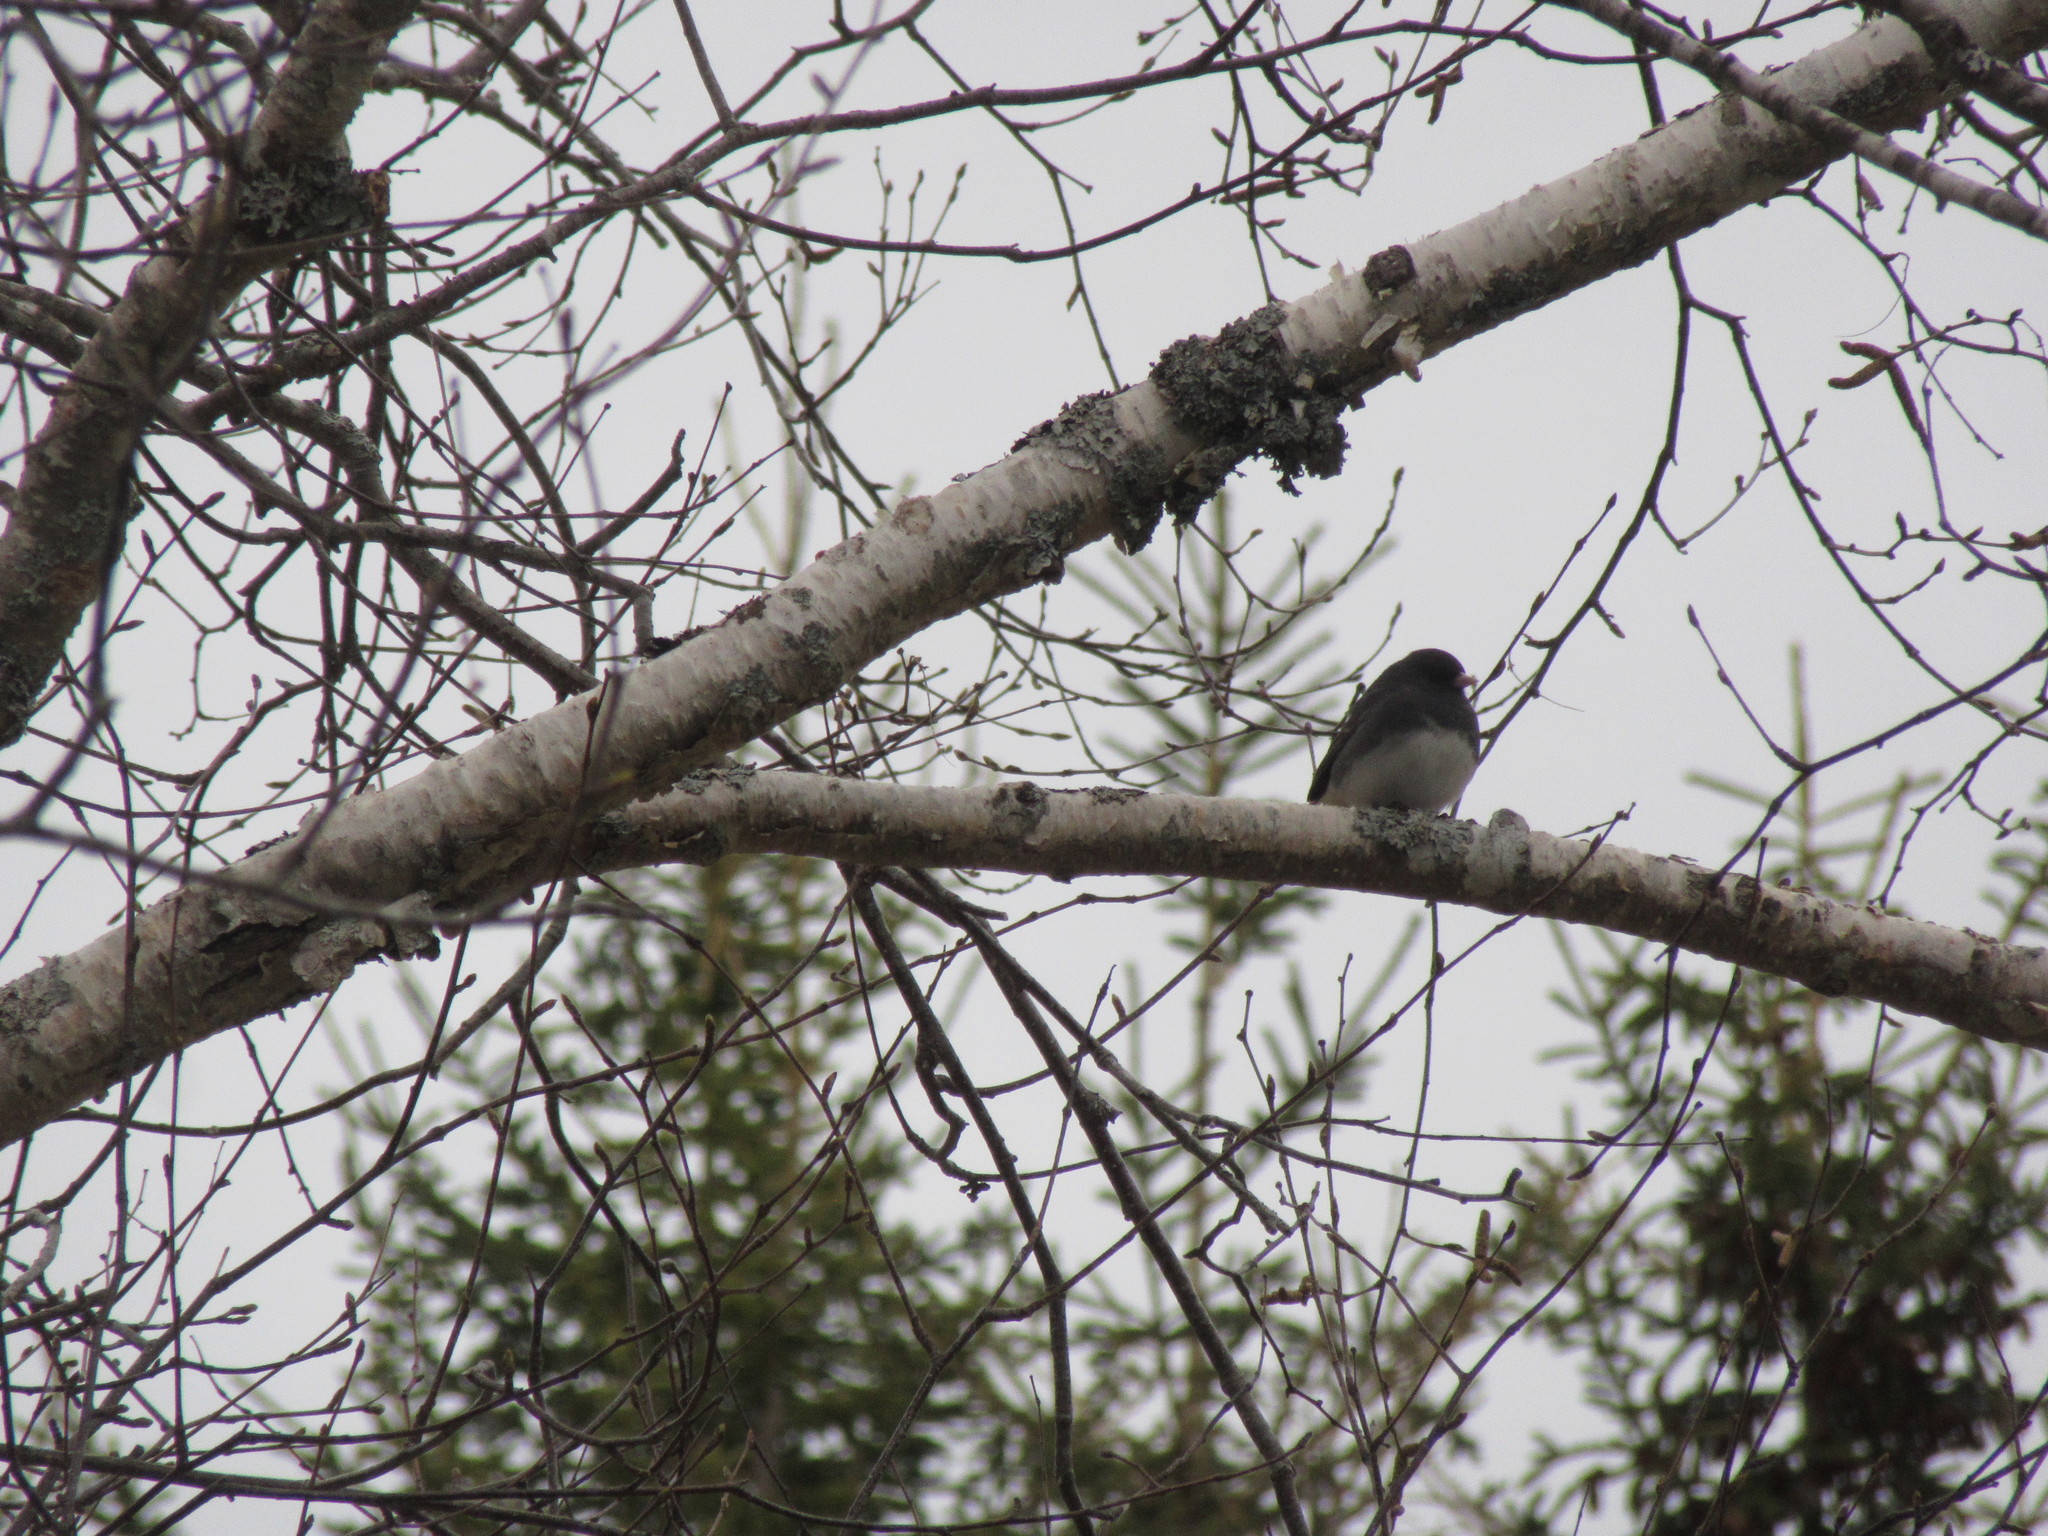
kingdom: Animalia
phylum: Chordata
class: Aves
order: Passeriformes
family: Passerellidae
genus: Junco
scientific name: Junco hyemalis
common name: Dark-eyed junco
